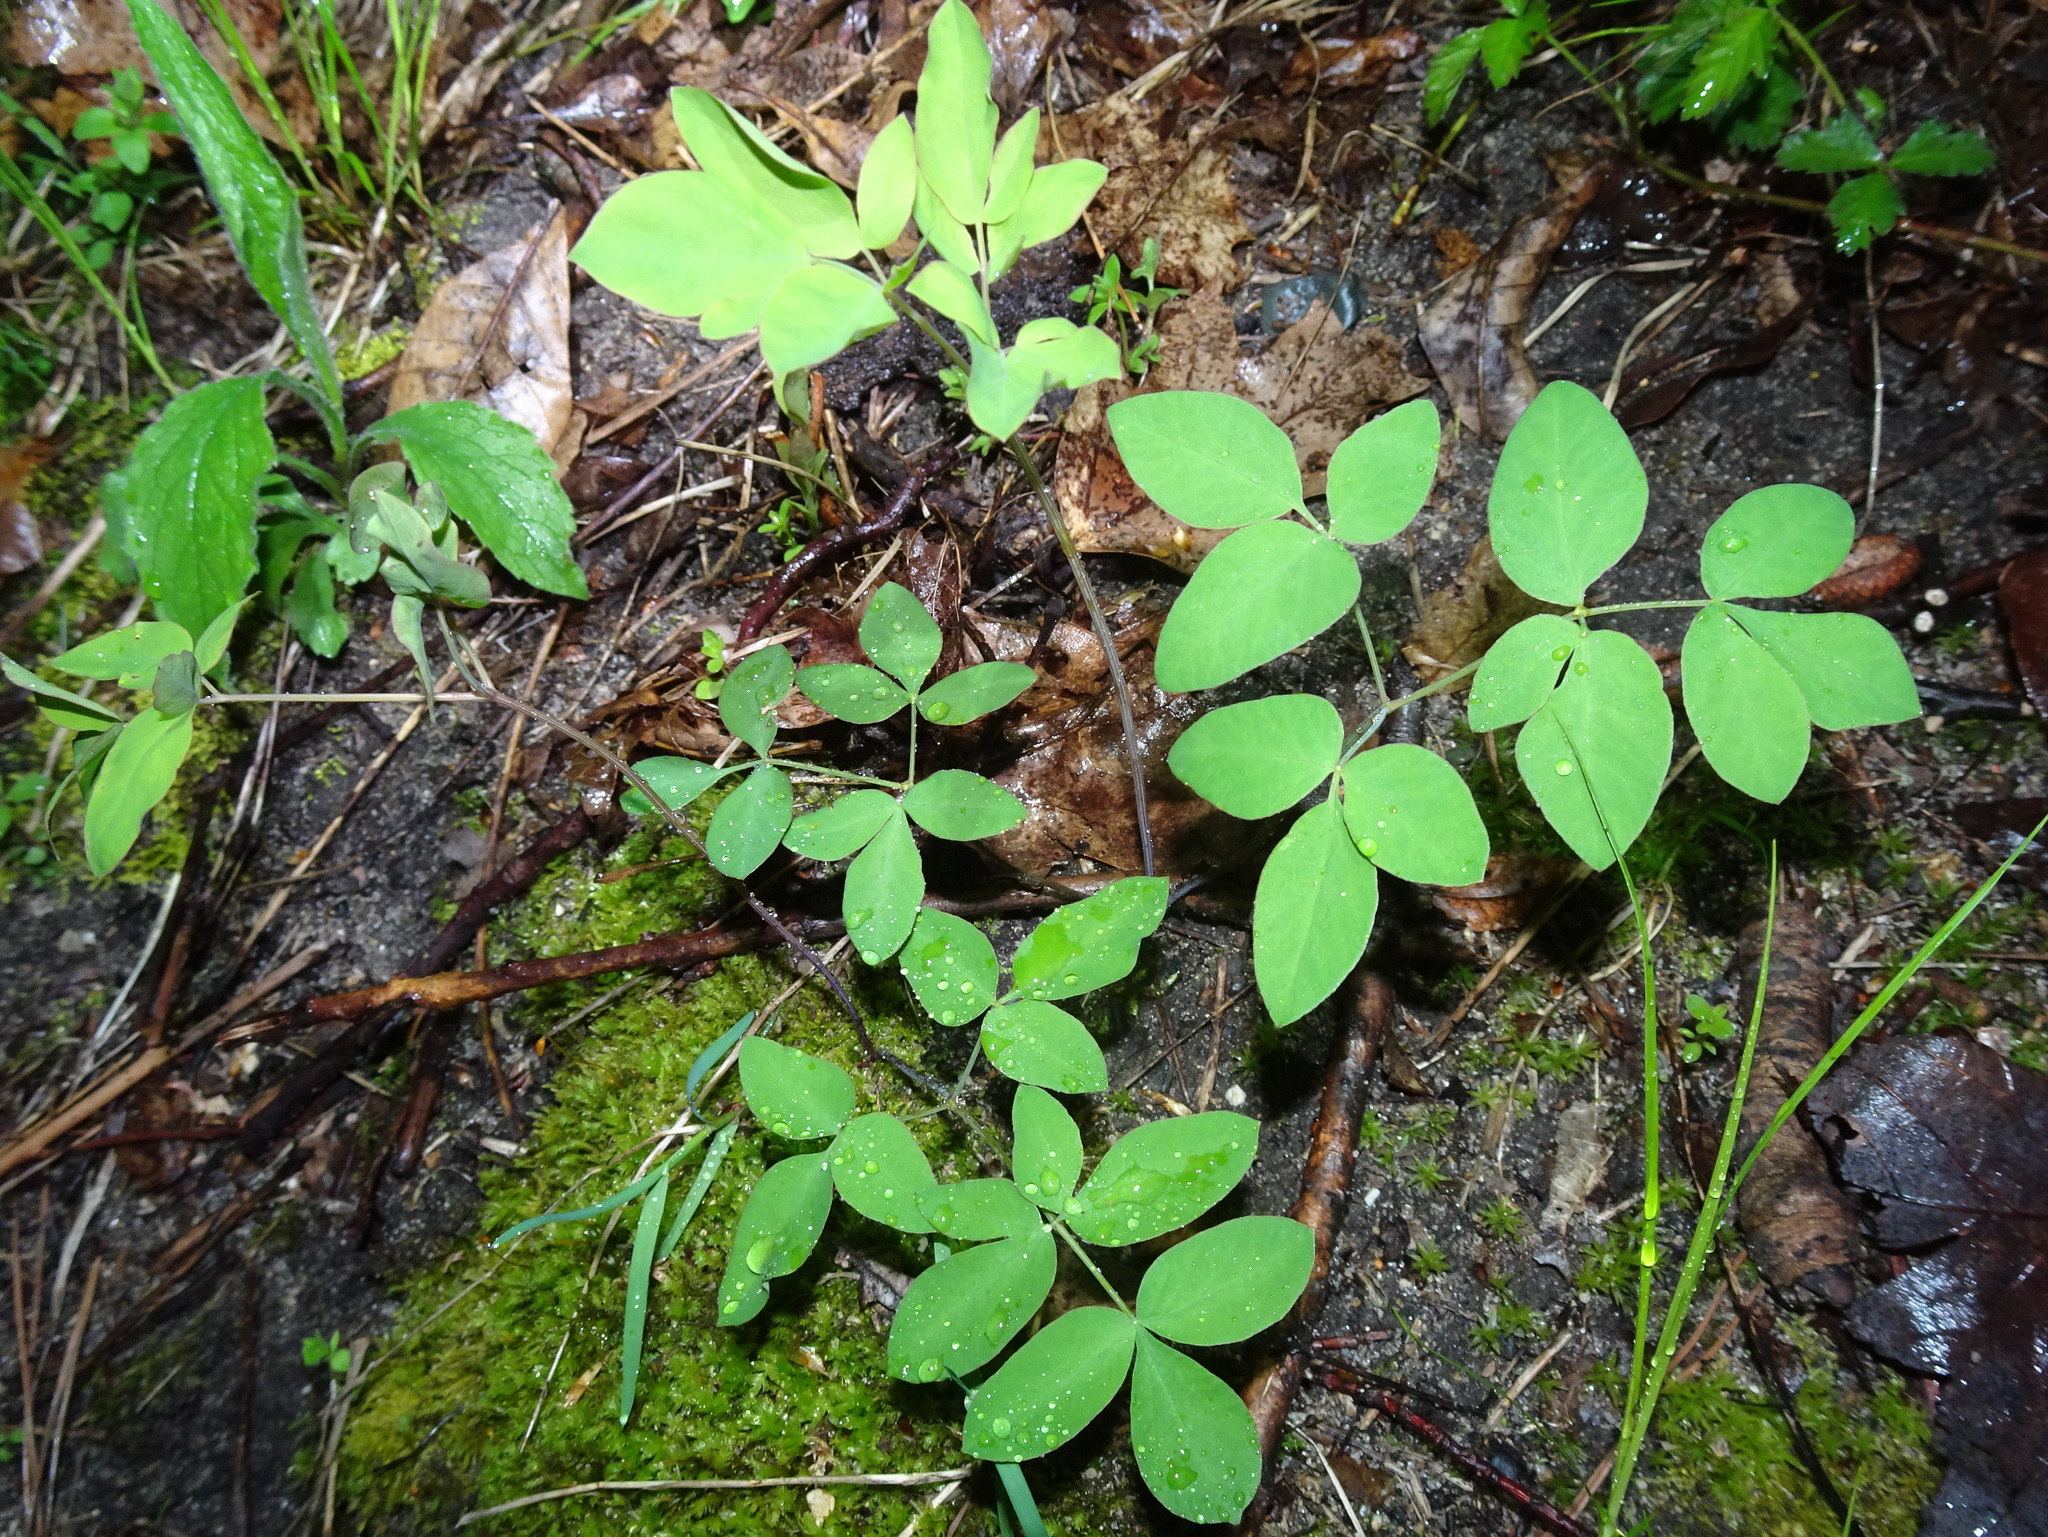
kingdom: Plantae
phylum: Tracheophyta
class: Magnoliopsida
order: Apiales
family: Apiaceae
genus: Taenidia
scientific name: Taenidia integerrima
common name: Golden alexander
